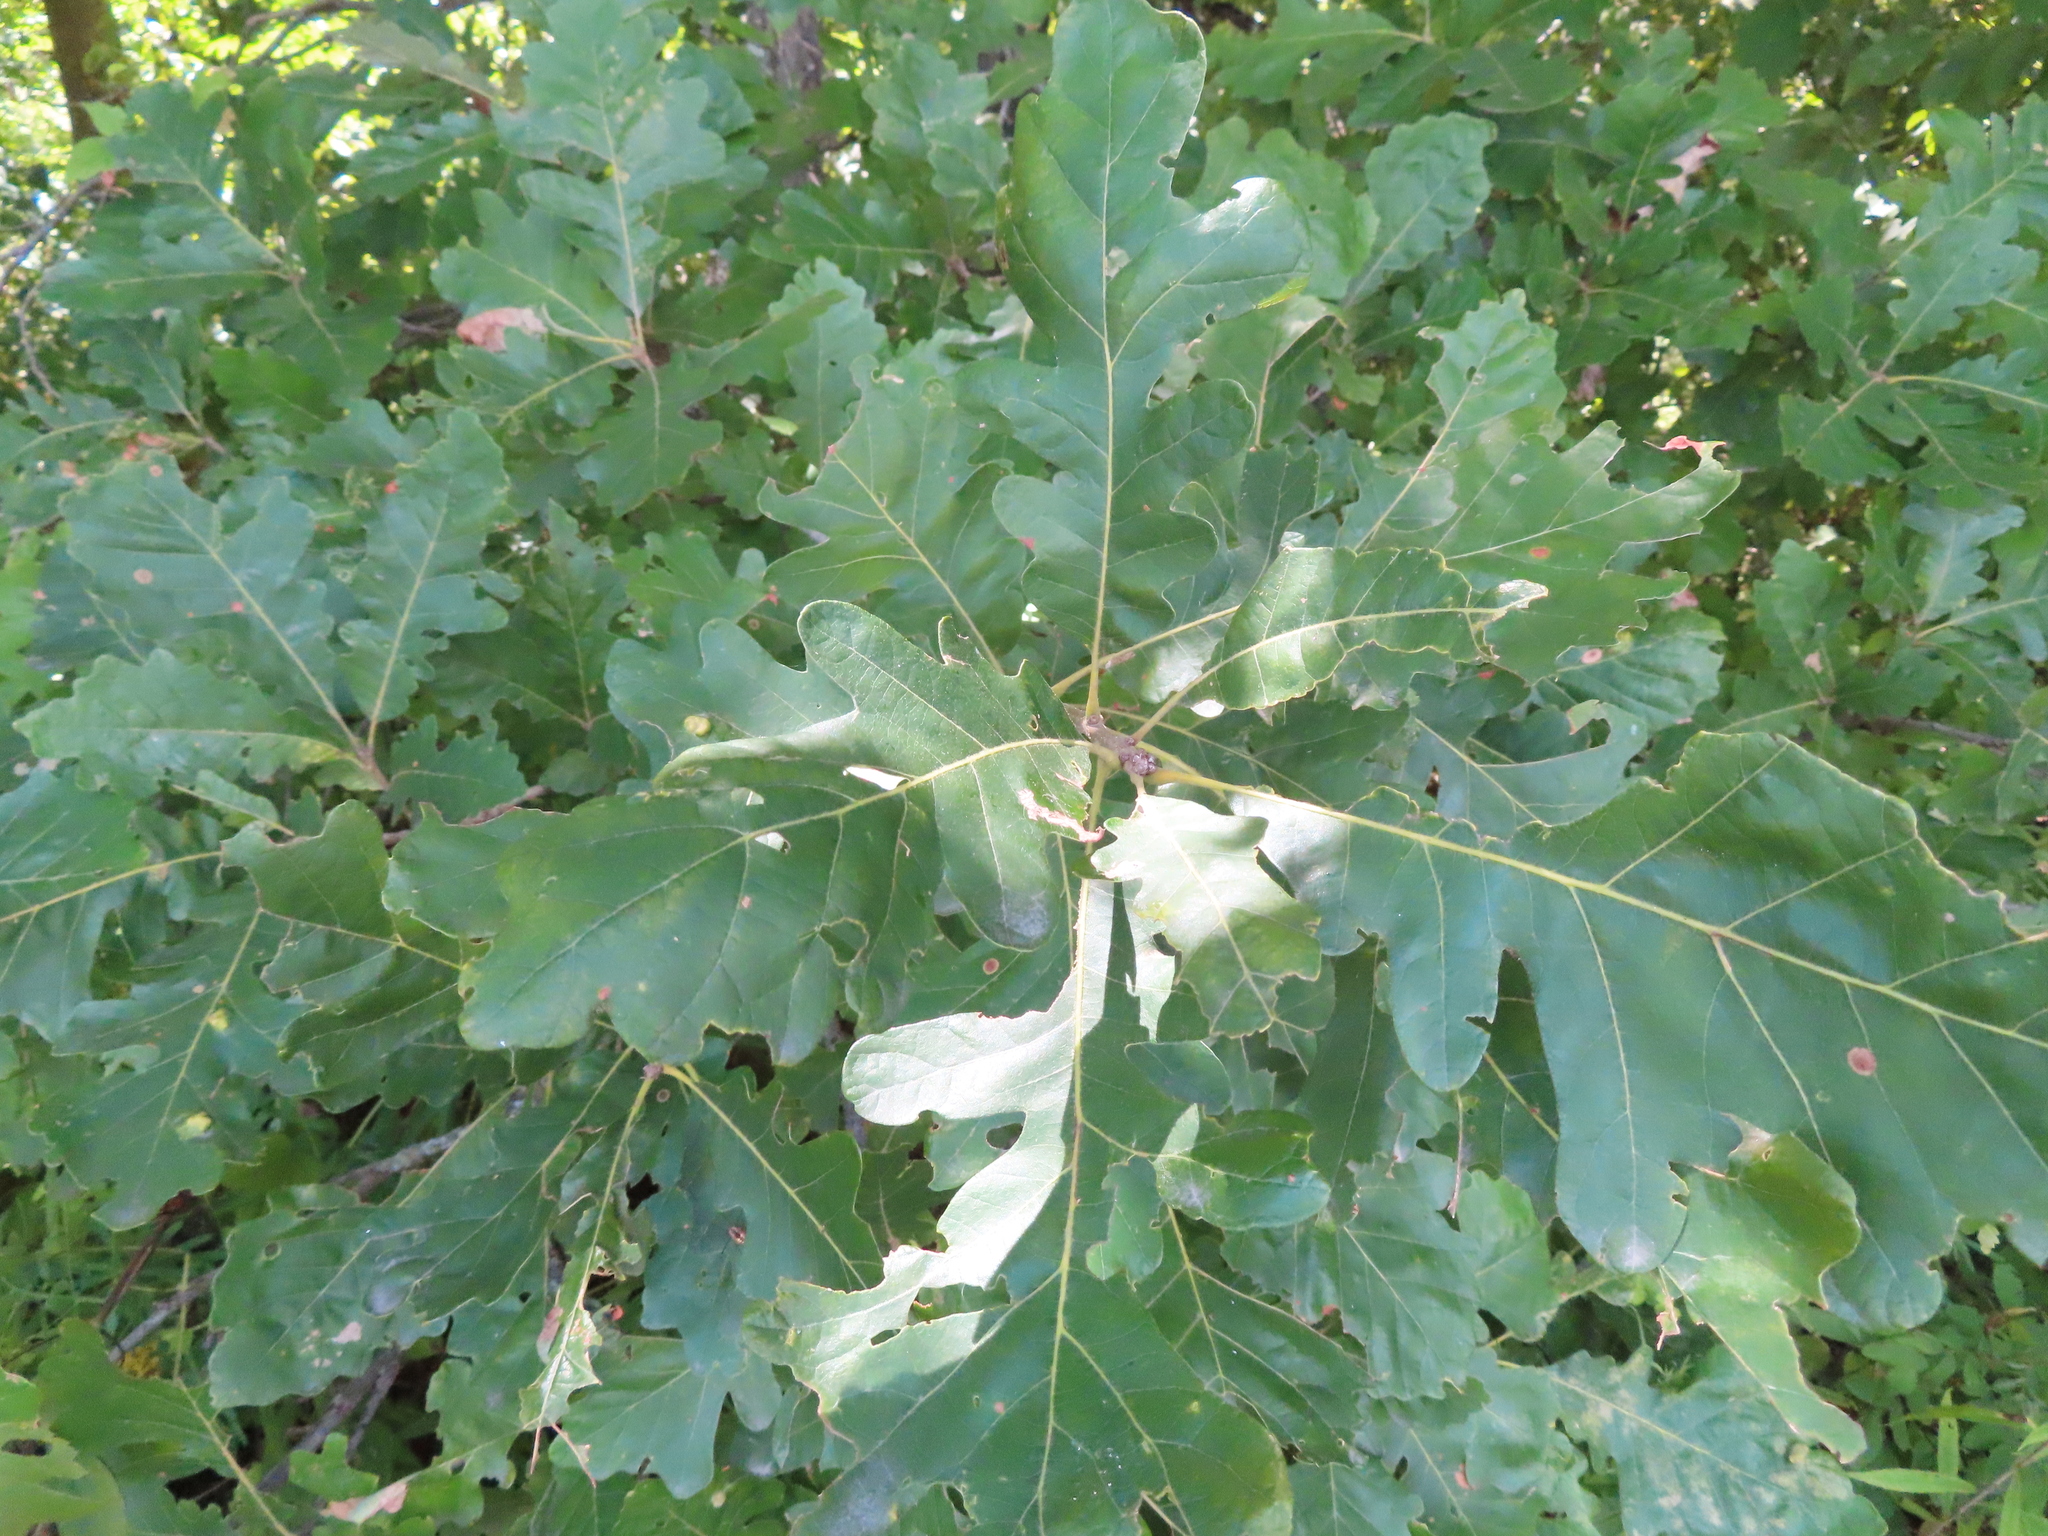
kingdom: Plantae
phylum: Tracheophyta
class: Magnoliopsida
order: Fagales
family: Fagaceae
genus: Quercus
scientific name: Quercus macrocarpa
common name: Bur oak
